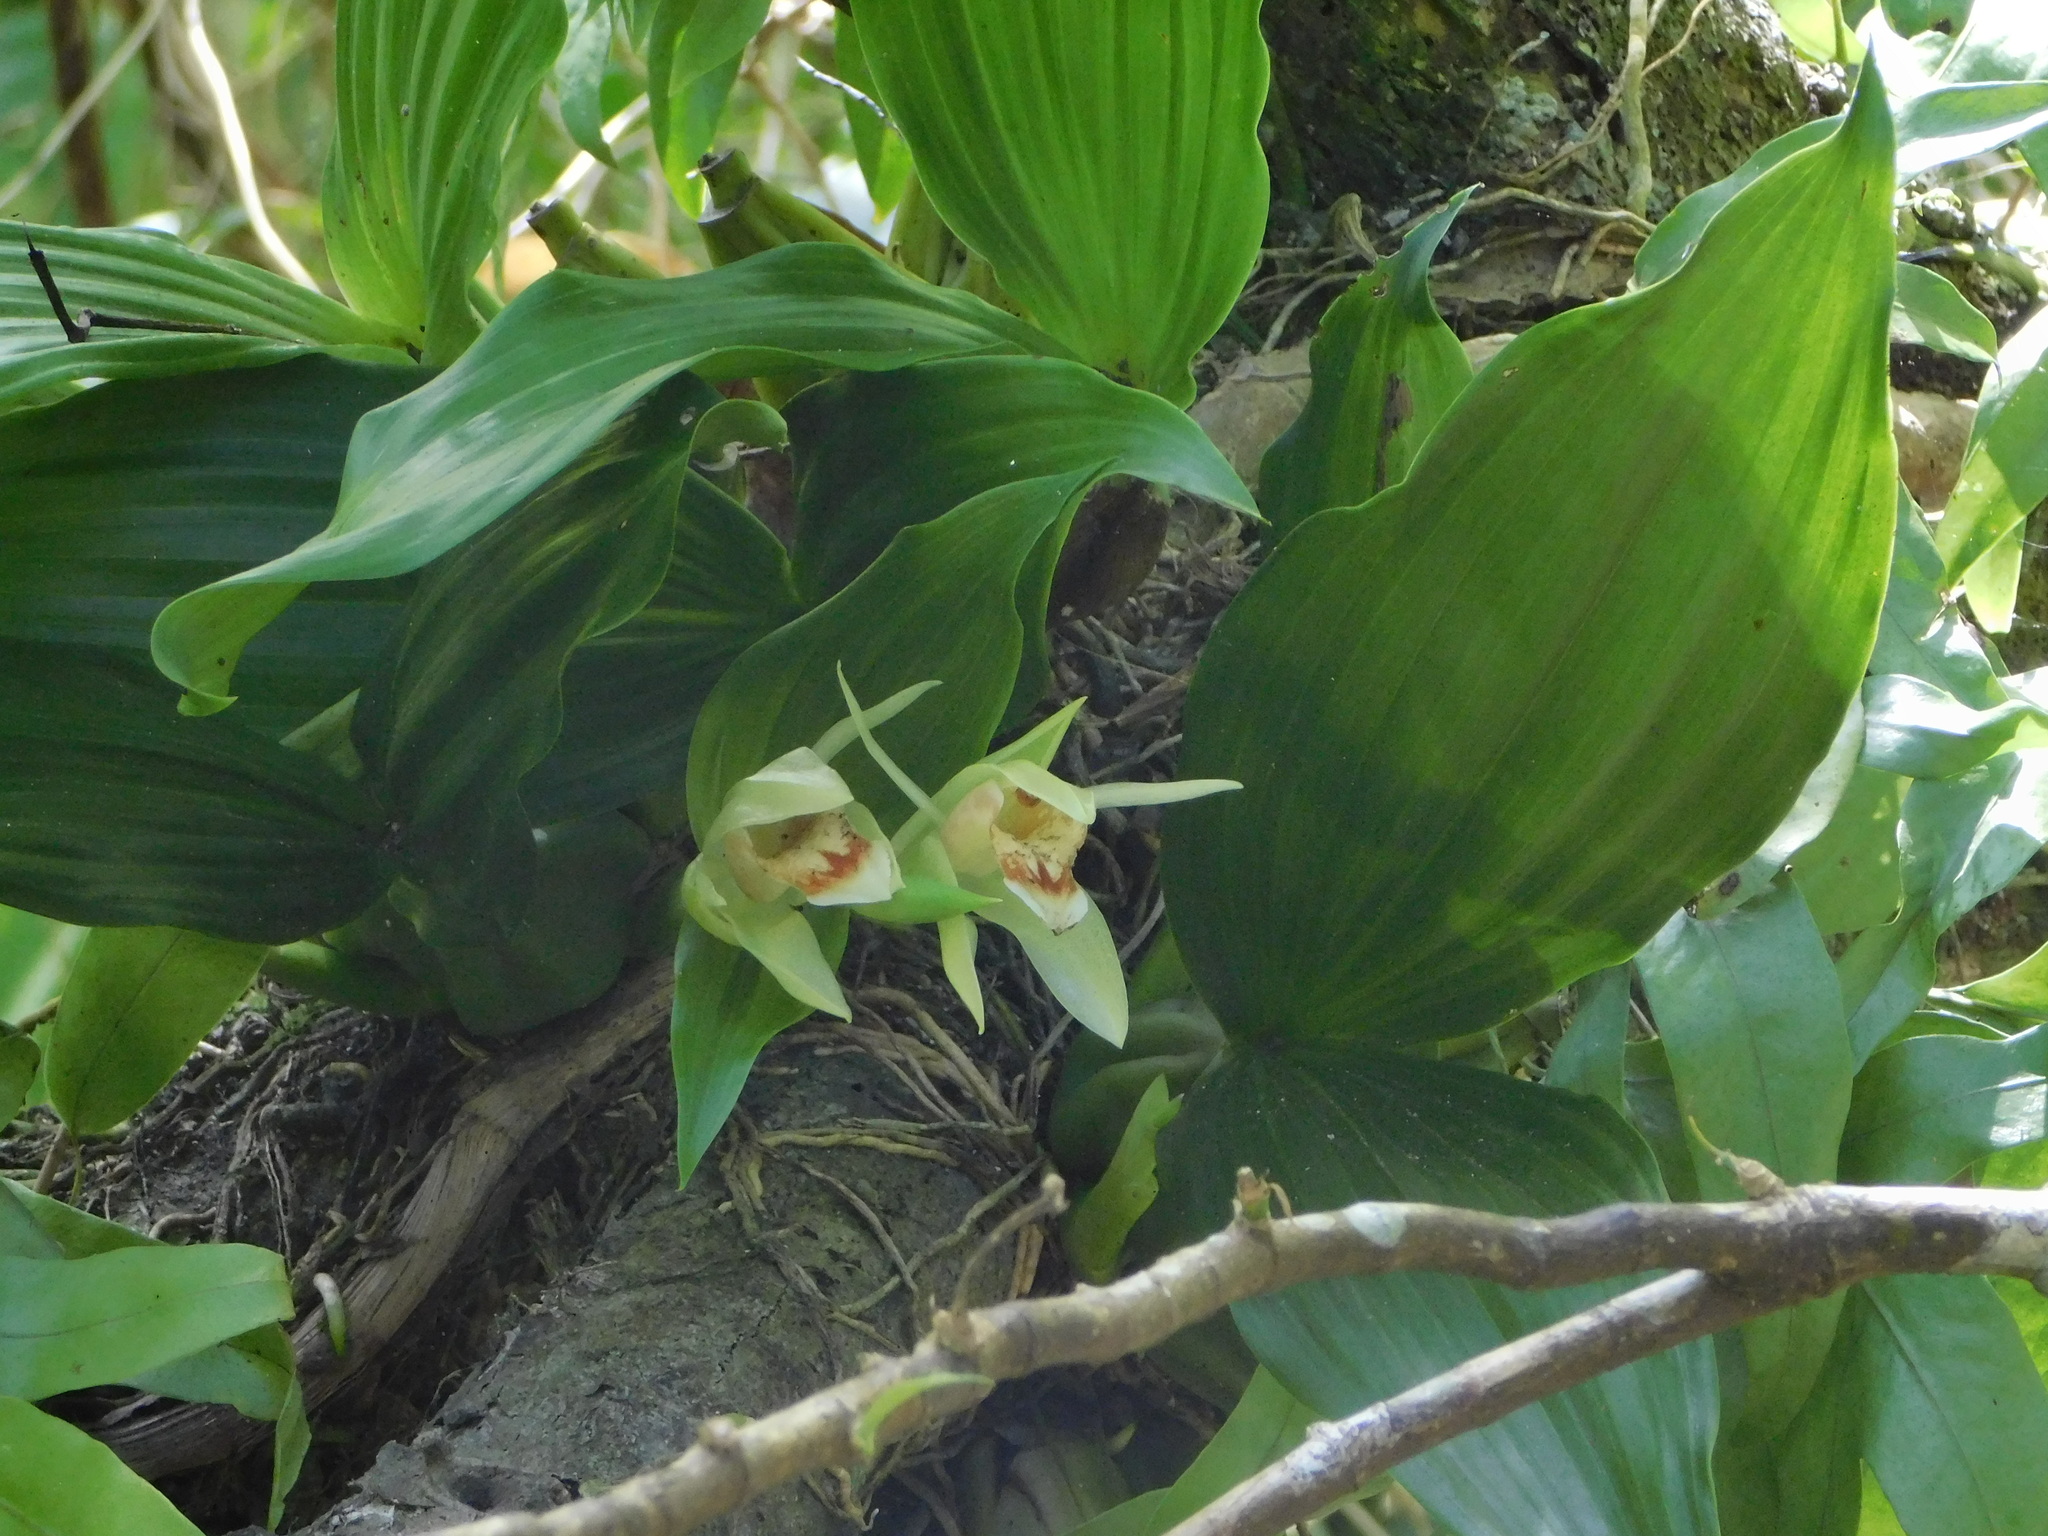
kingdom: Plantae
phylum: Tracheophyta
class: Liliopsida
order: Asparagales
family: Orchidaceae
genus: Coelogyne
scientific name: Coelogyne macdonaldii
